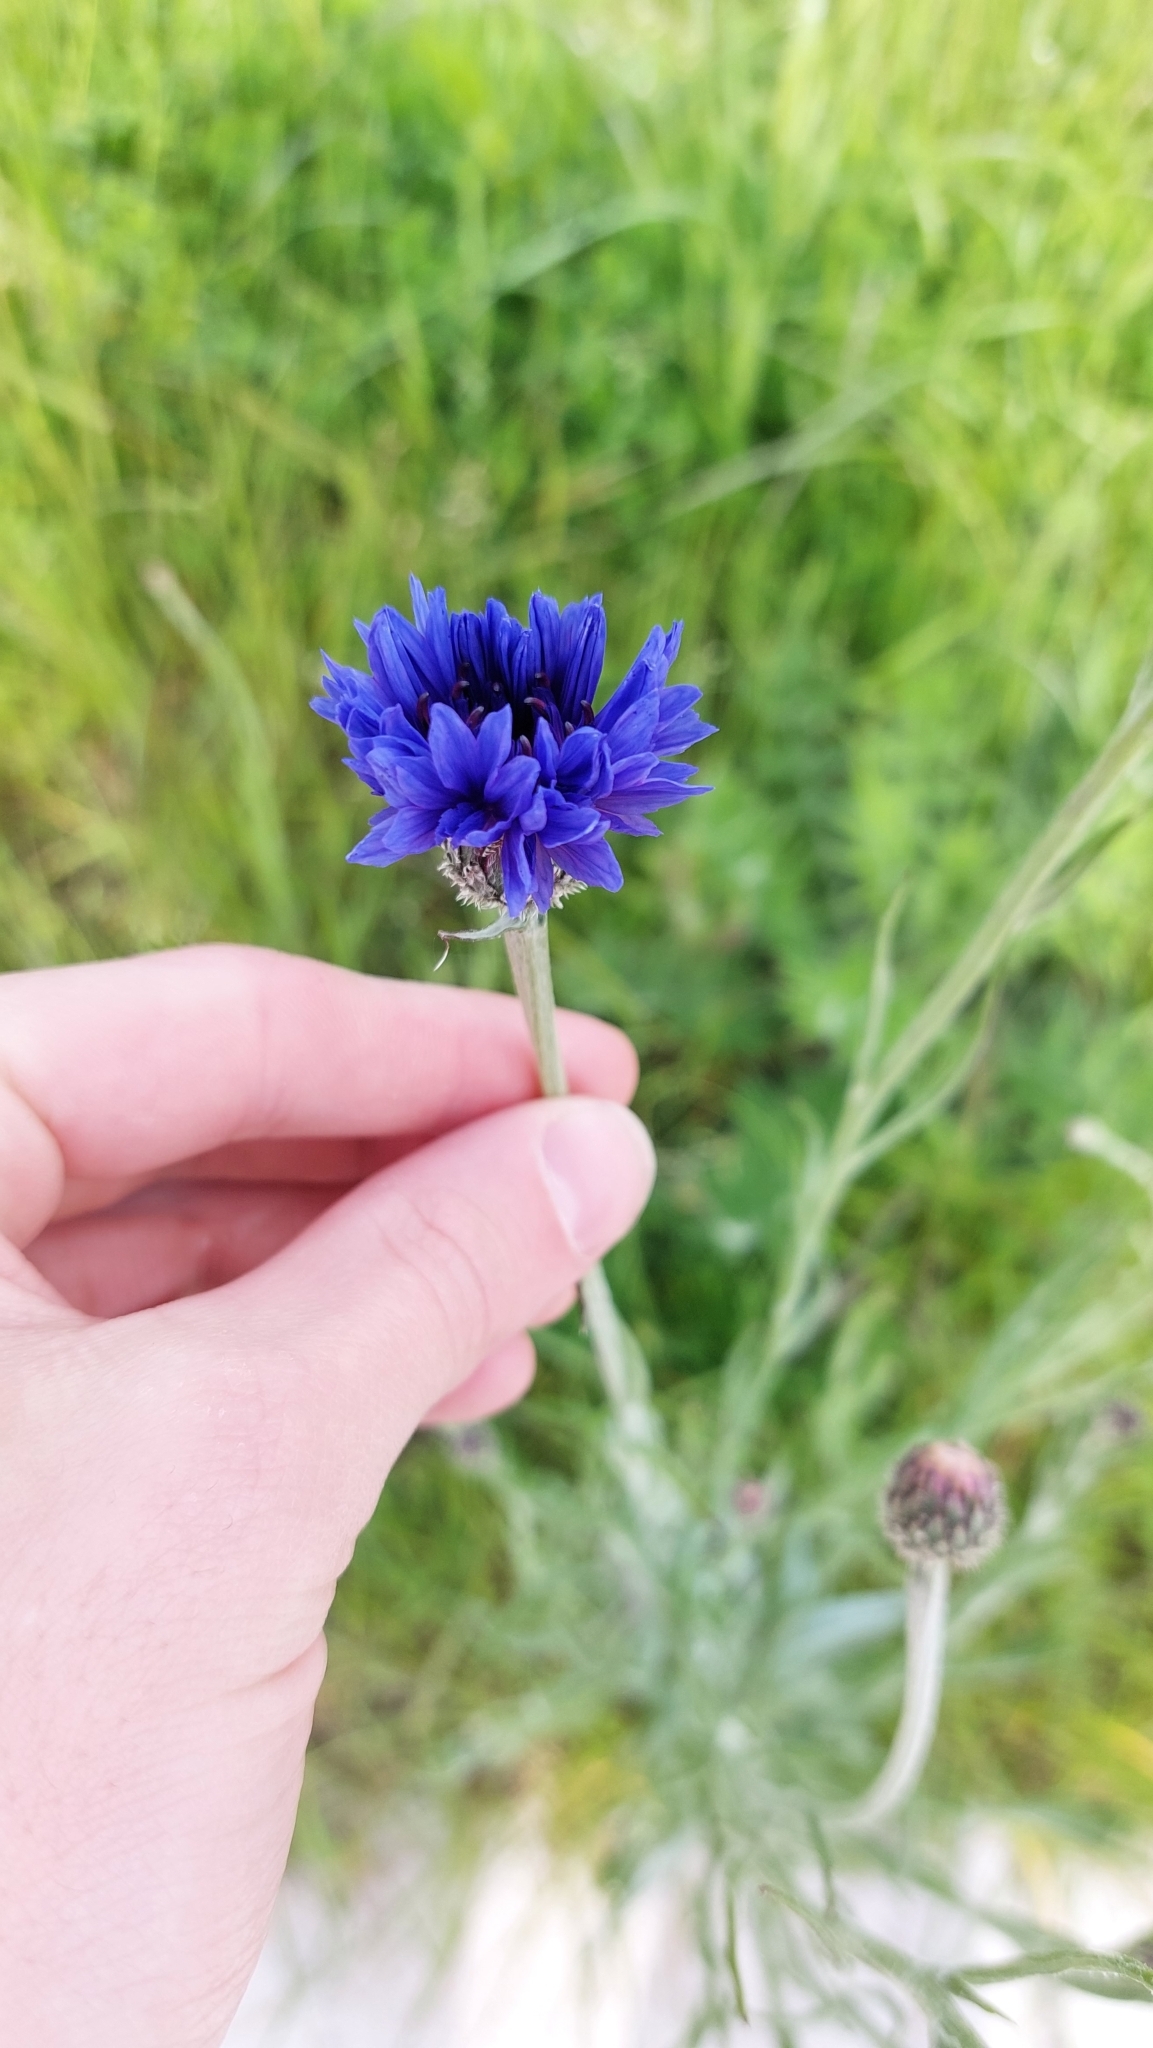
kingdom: Plantae
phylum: Tracheophyta
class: Magnoliopsida
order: Asterales
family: Asteraceae
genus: Centaurea
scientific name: Centaurea cyanus
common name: Cornflower
